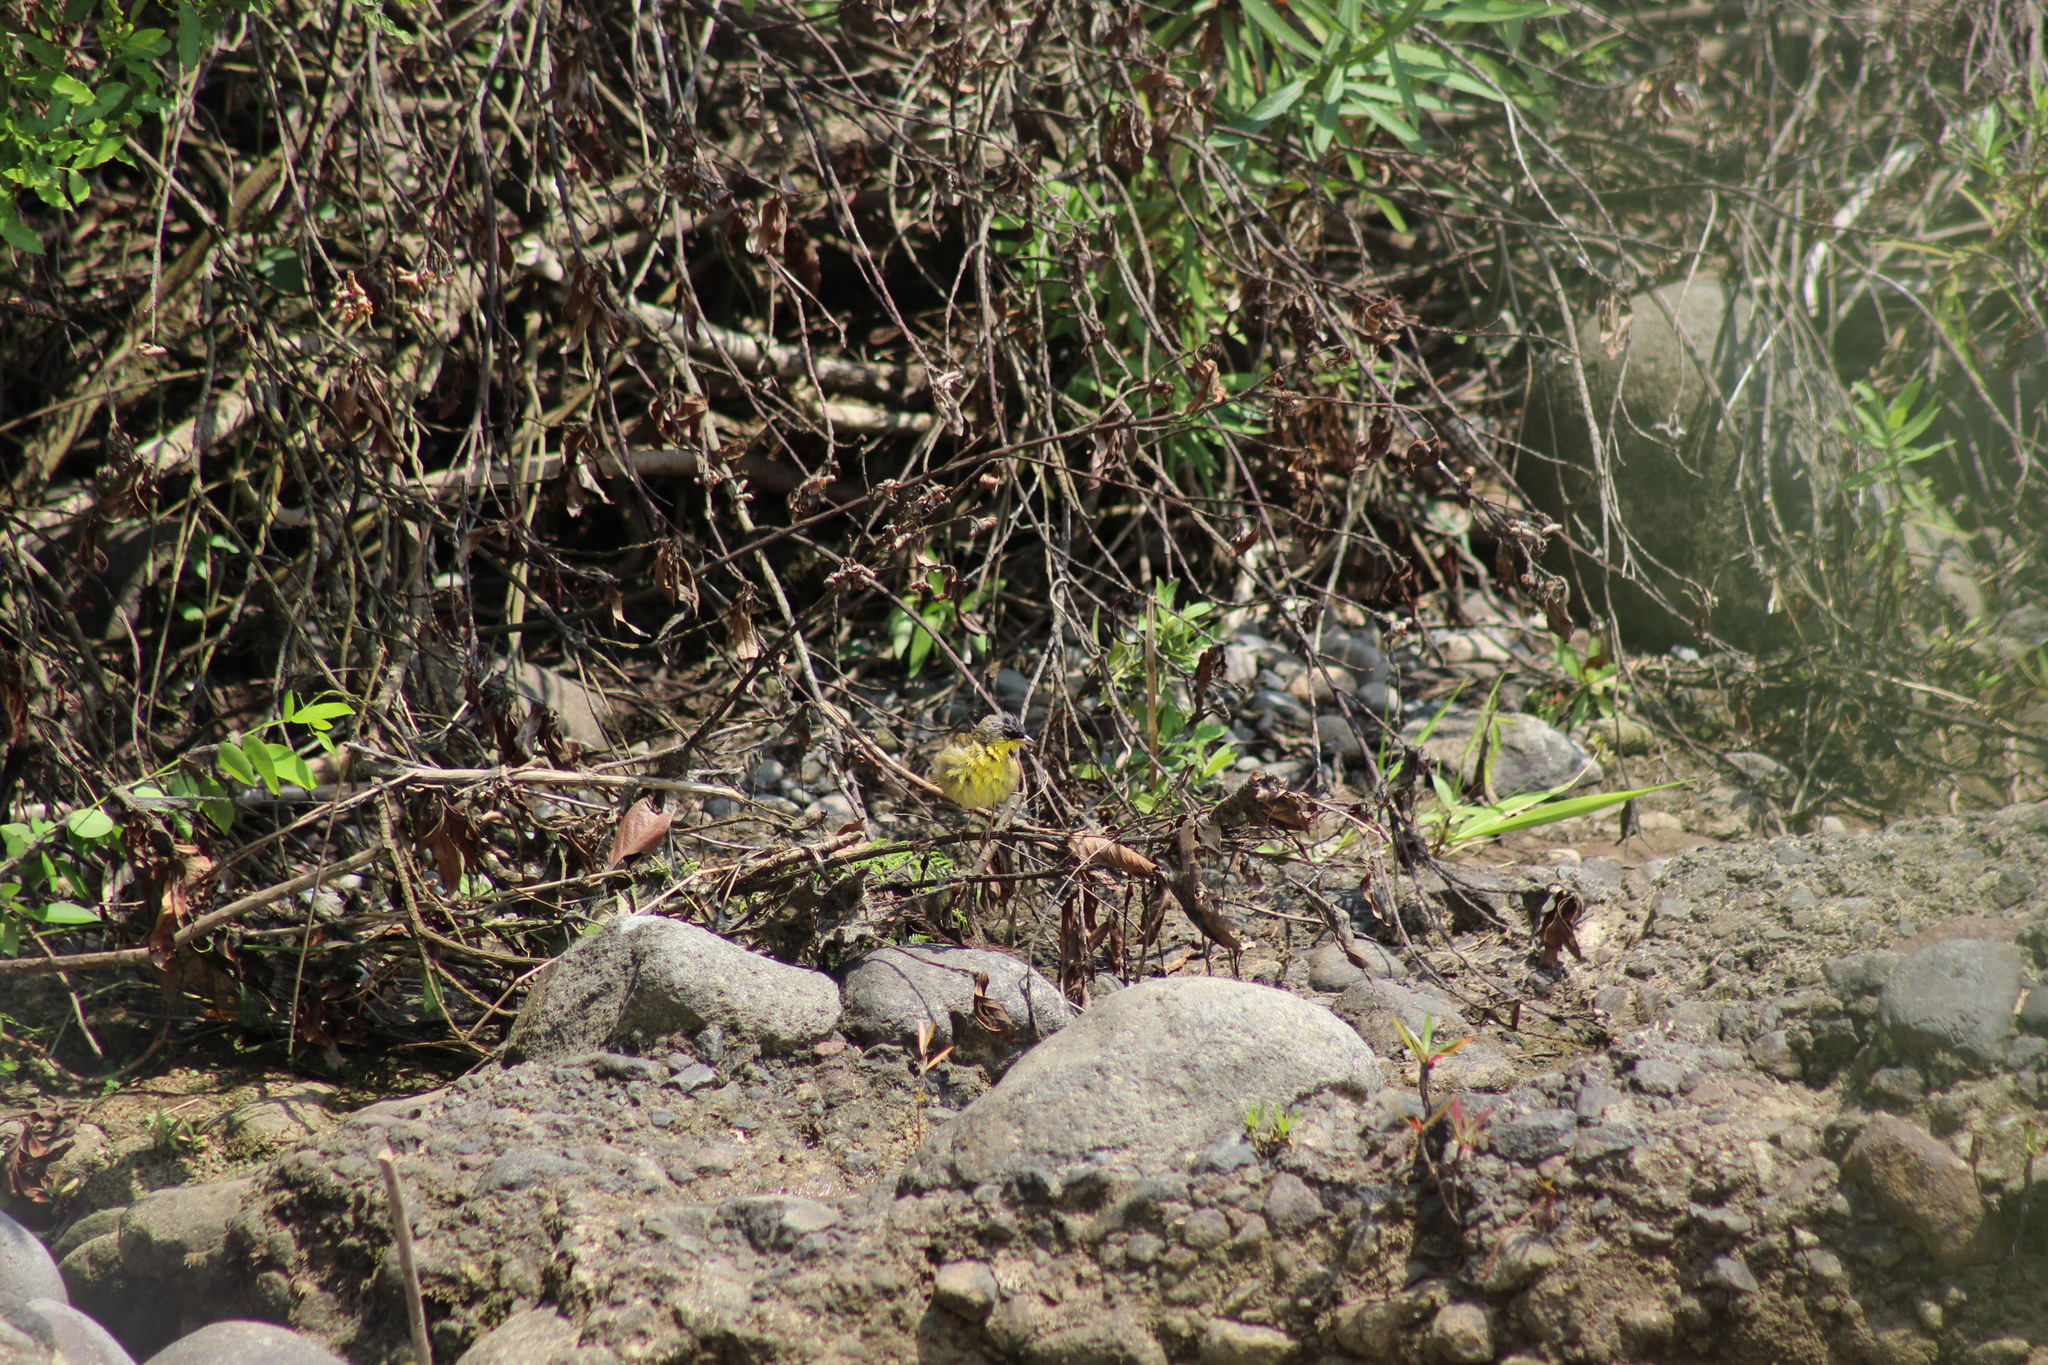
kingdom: Animalia
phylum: Chordata
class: Aves
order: Passeriformes
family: Parulidae
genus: Geothlypis
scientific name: Geothlypis poliocephala
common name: Gray-crowned yellowthroat
